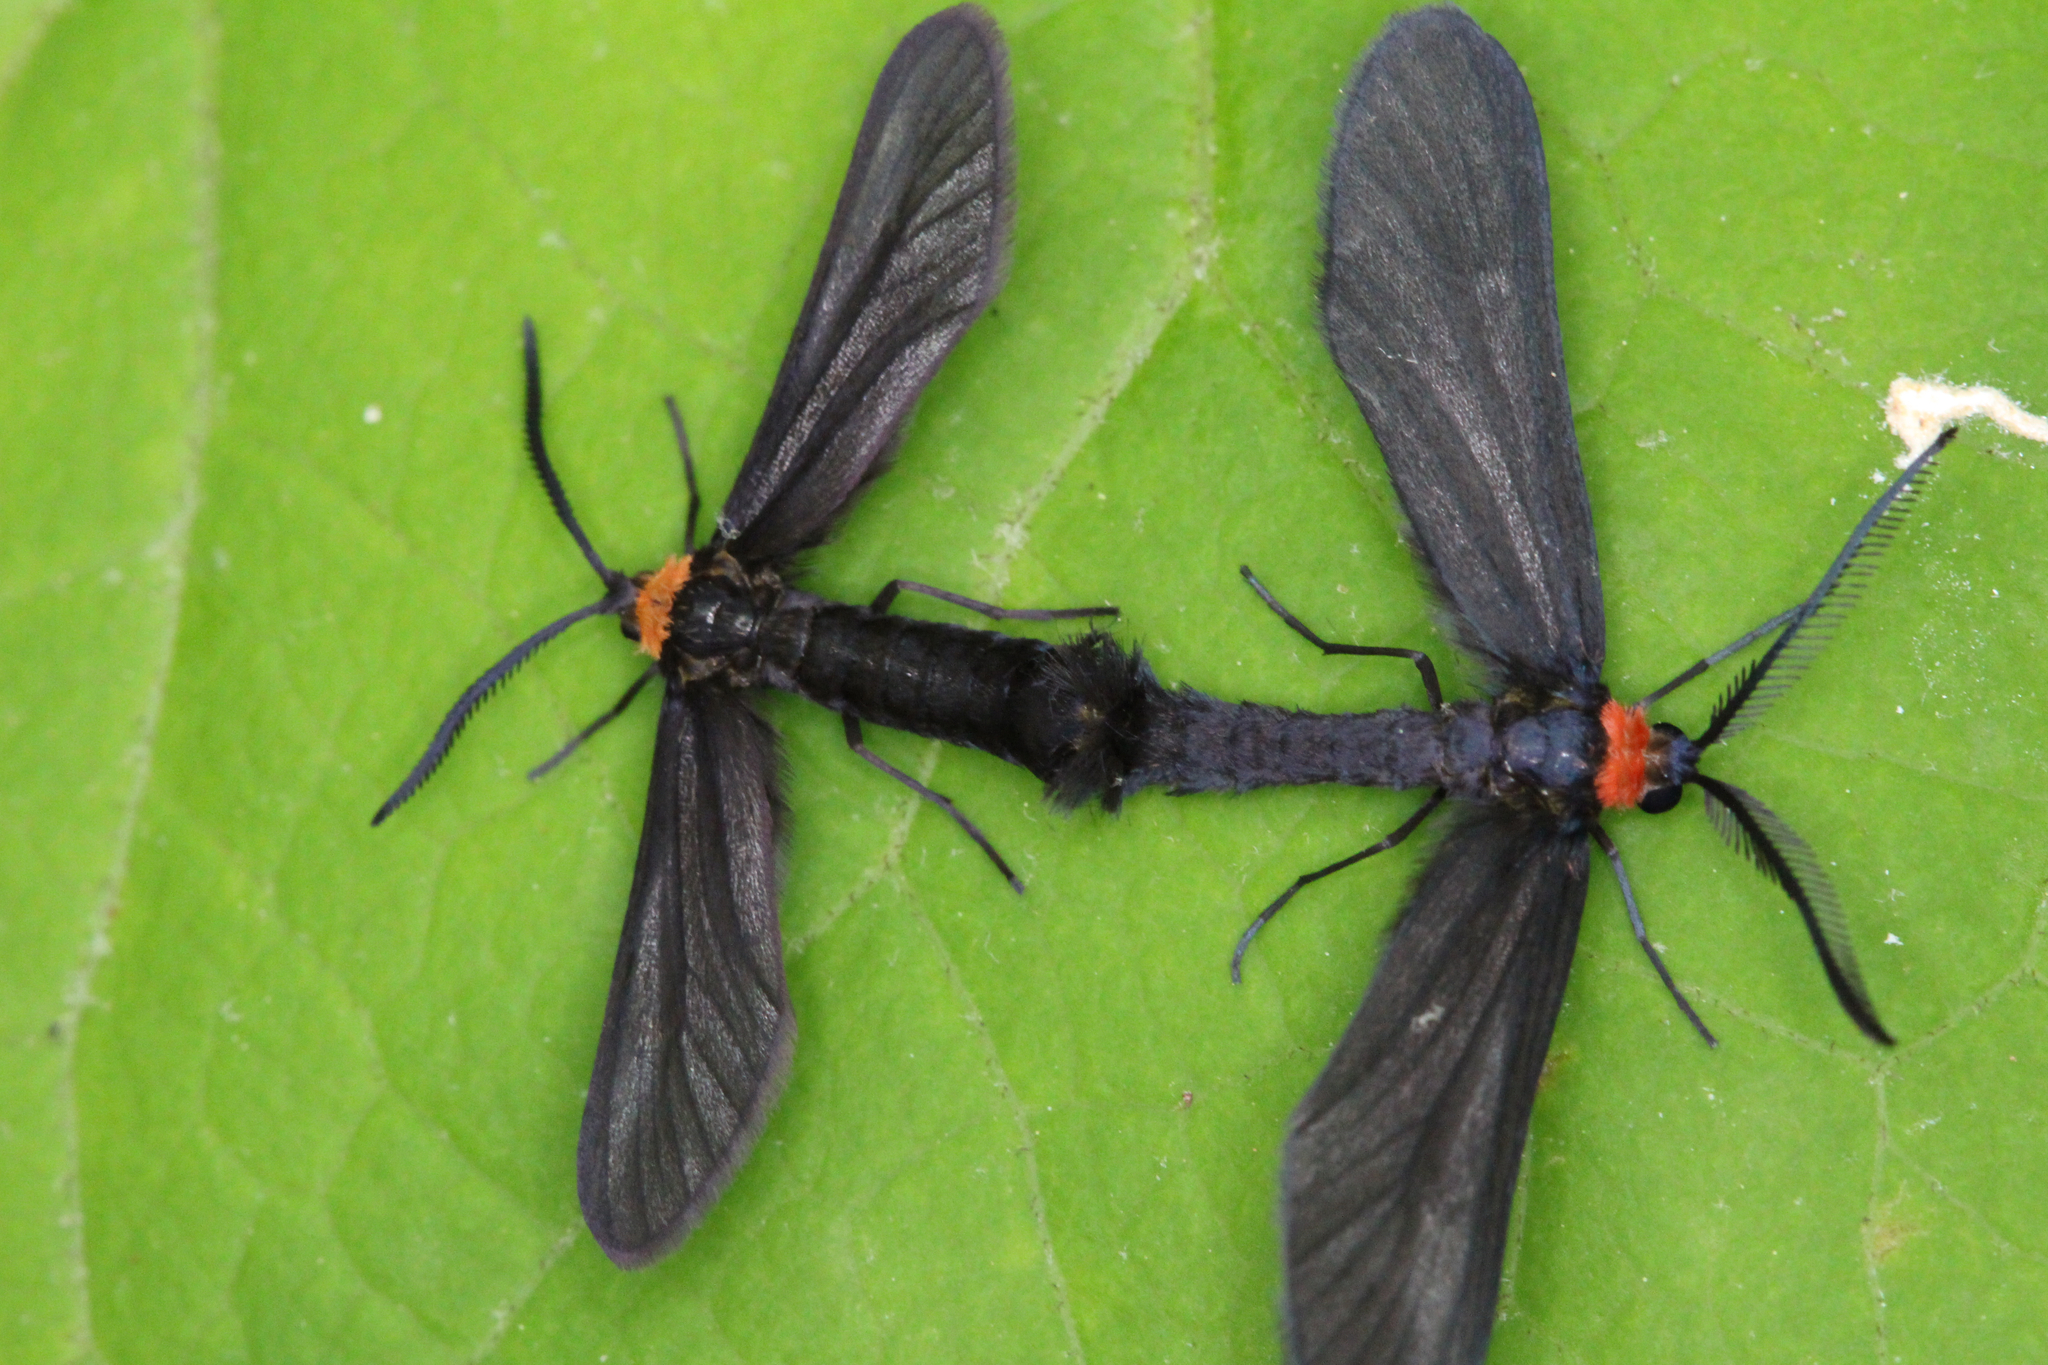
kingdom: Animalia
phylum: Arthropoda
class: Insecta
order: Lepidoptera
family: Zygaenidae
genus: Harrisina
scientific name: Harrisina americana
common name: Grapeleaf skeletonizer moth
